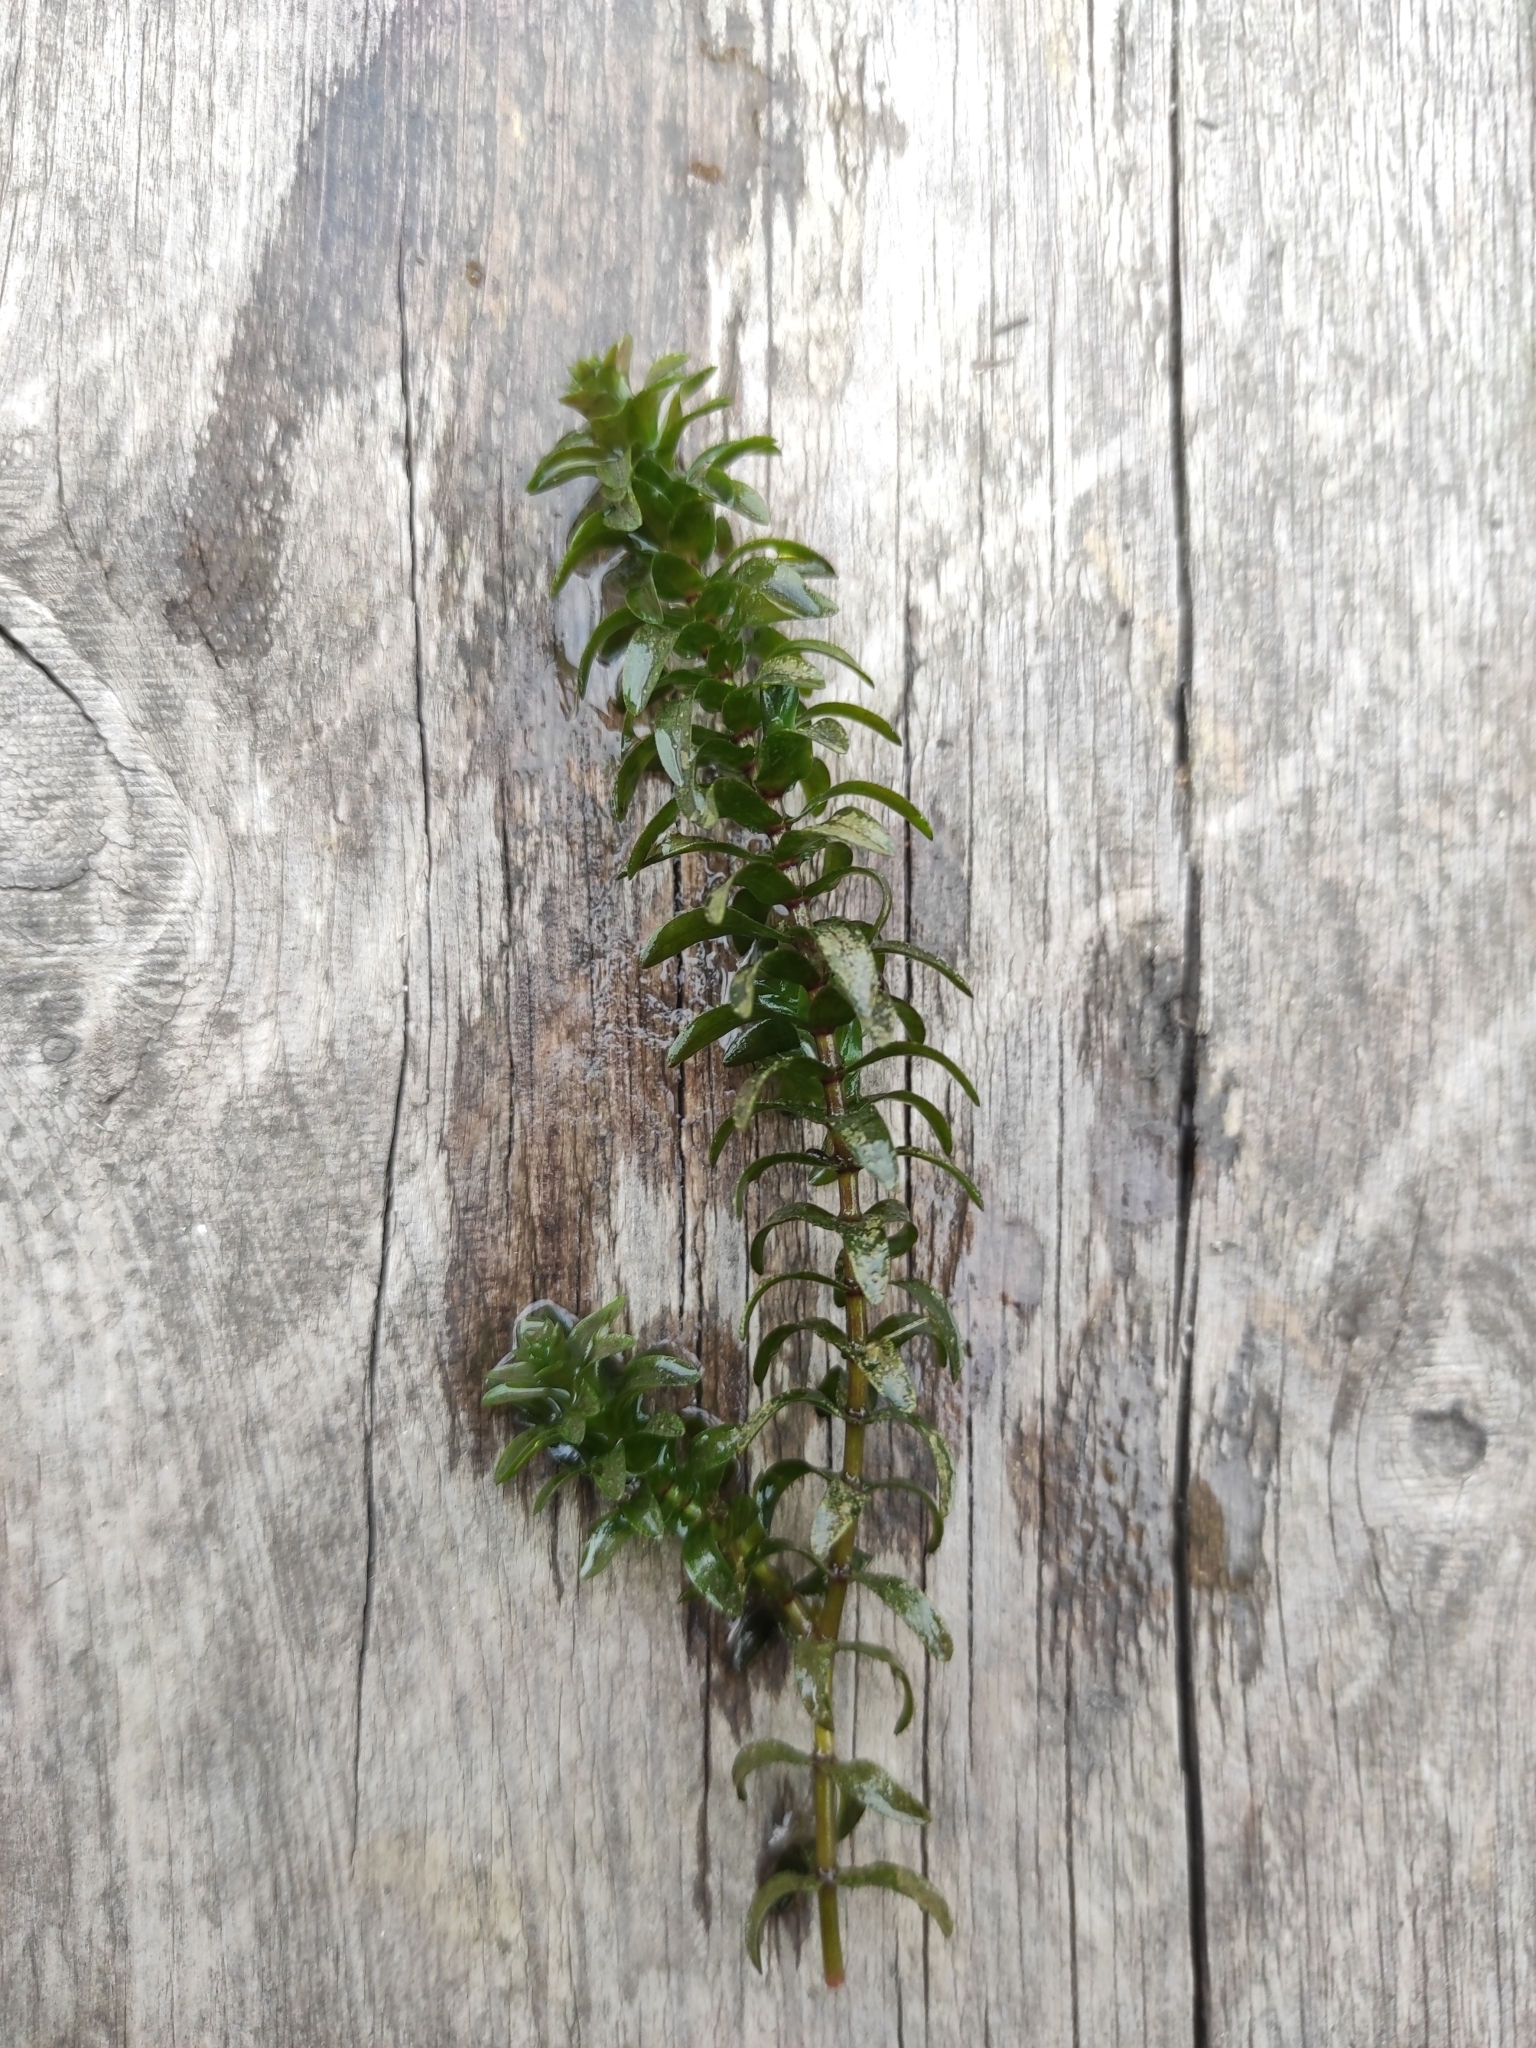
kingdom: Plantae
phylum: Tracheophyta
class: Liliopsida
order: Alismatales
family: Hydrocharitaceae
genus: Elodea
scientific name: Elodea canadensis
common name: Canadian waterweed
